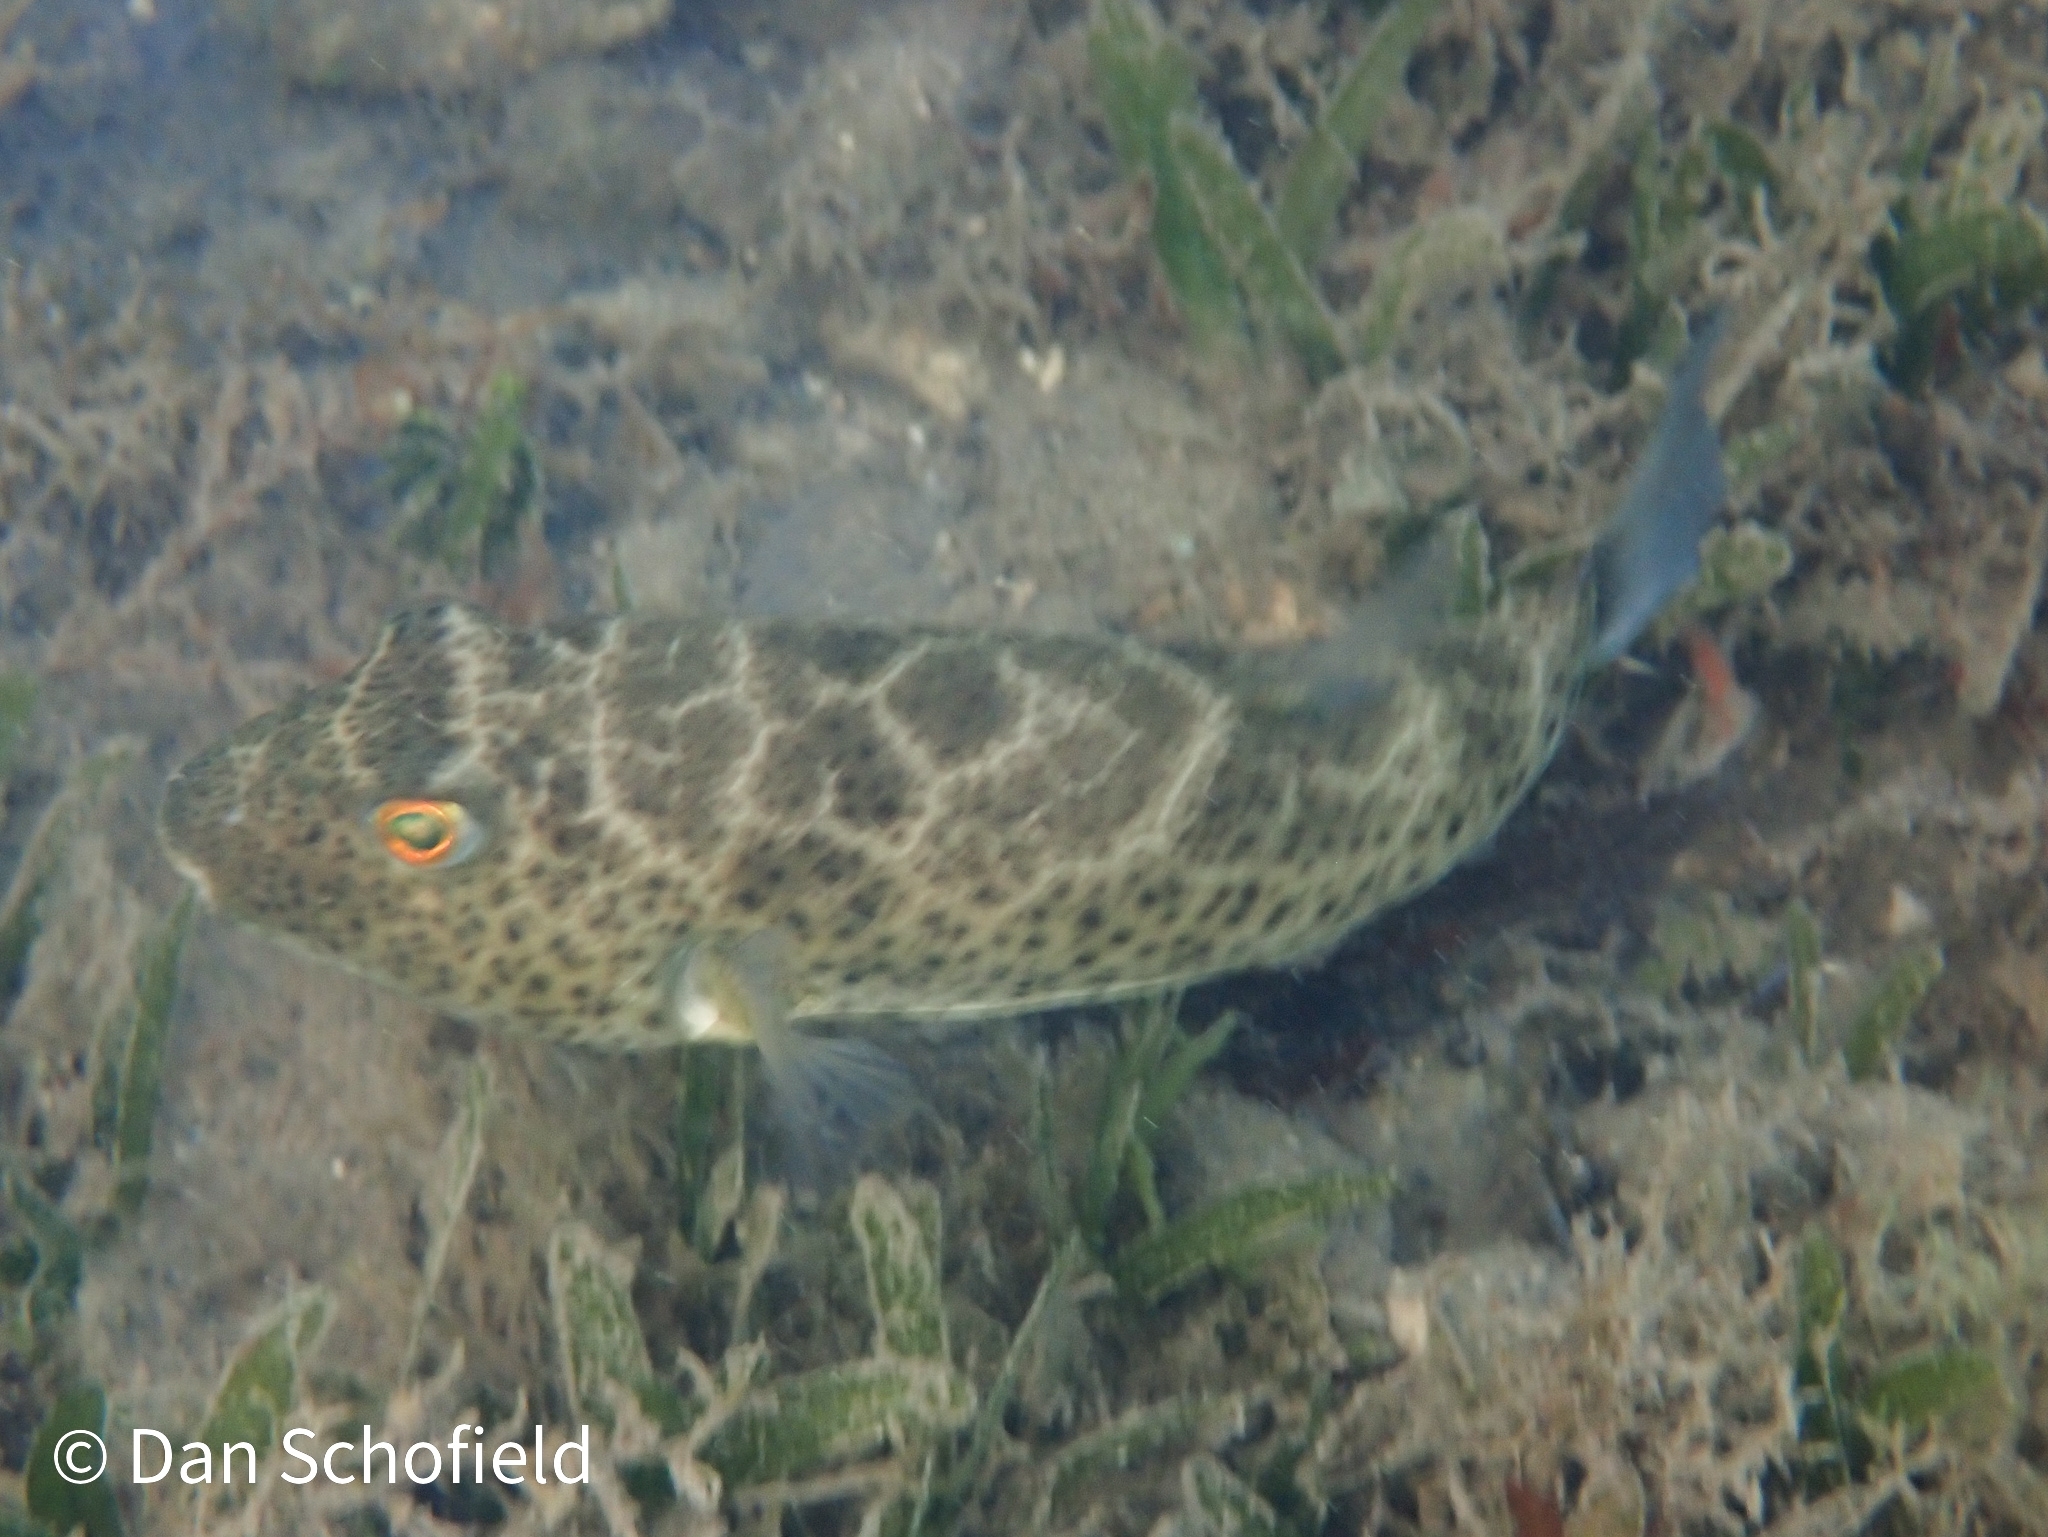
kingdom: Animalia
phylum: Chordata
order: Tetraodontiformes
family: Tetraodontidae
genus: Sphoeroides
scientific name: Sphoeroides testudineus
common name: Checkered puffer
